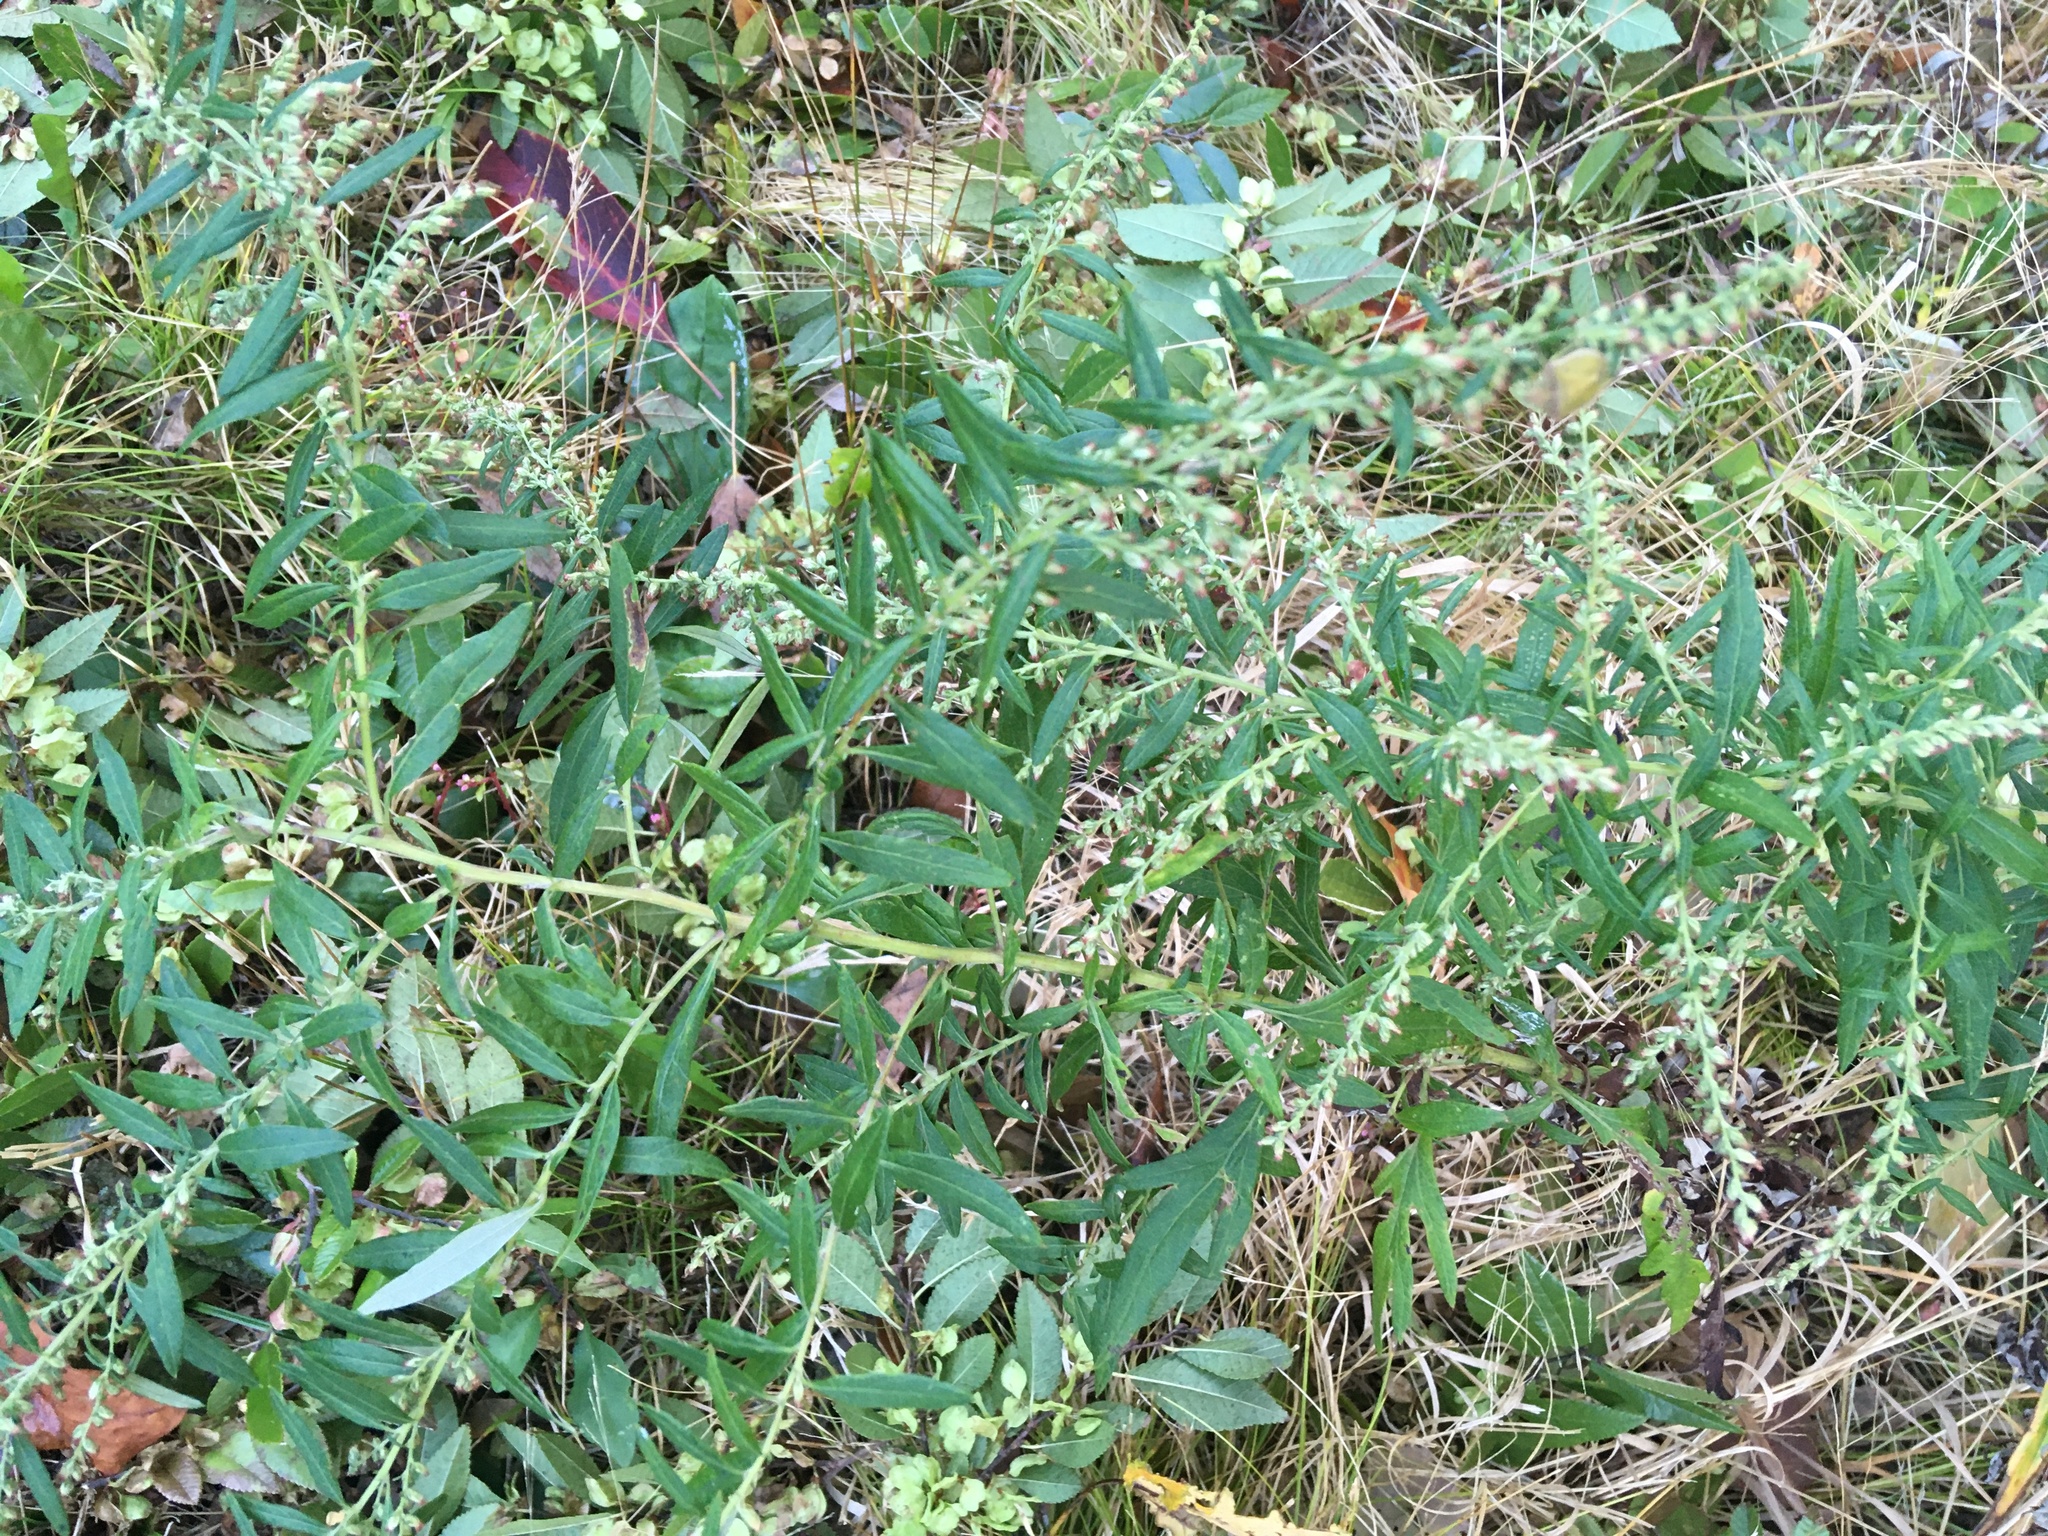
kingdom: Plantae
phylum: Tracheophyta
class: Magnoliopsida
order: Asterales
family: Asteraceae
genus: Artemisia
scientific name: Artemisia vulgaris
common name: Mugwort
